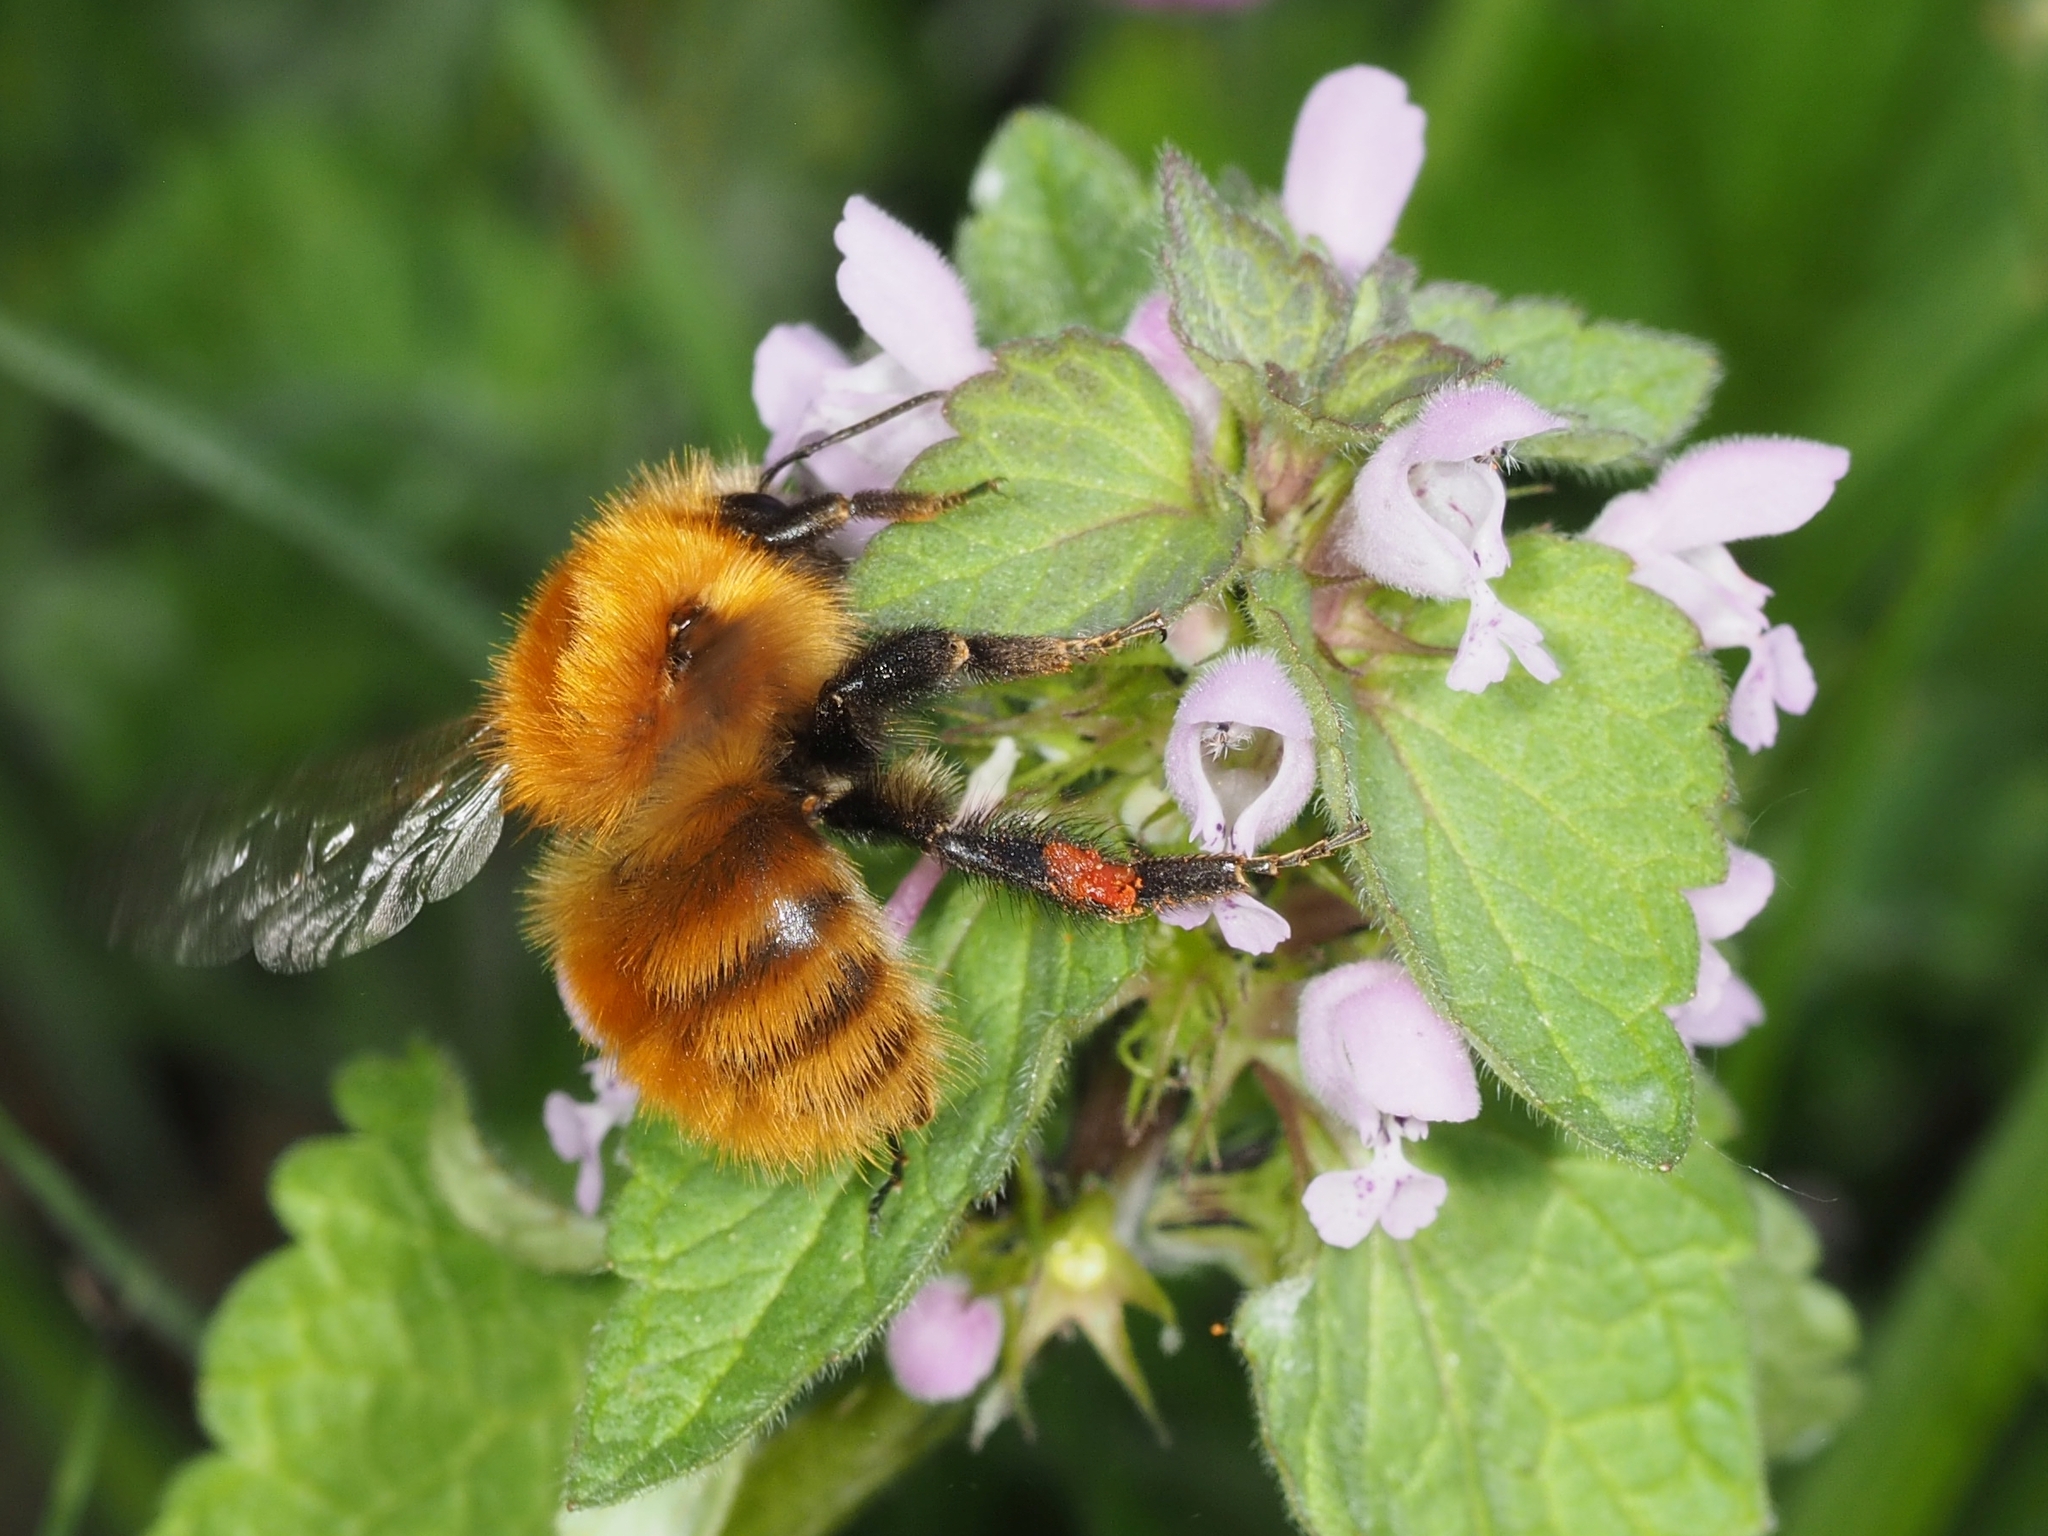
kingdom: Animalia
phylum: Arthropoda
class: Insecta
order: Hymenoptera
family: Apidae
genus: Bombus
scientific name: Bombus pascuorum
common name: Common carder bee
